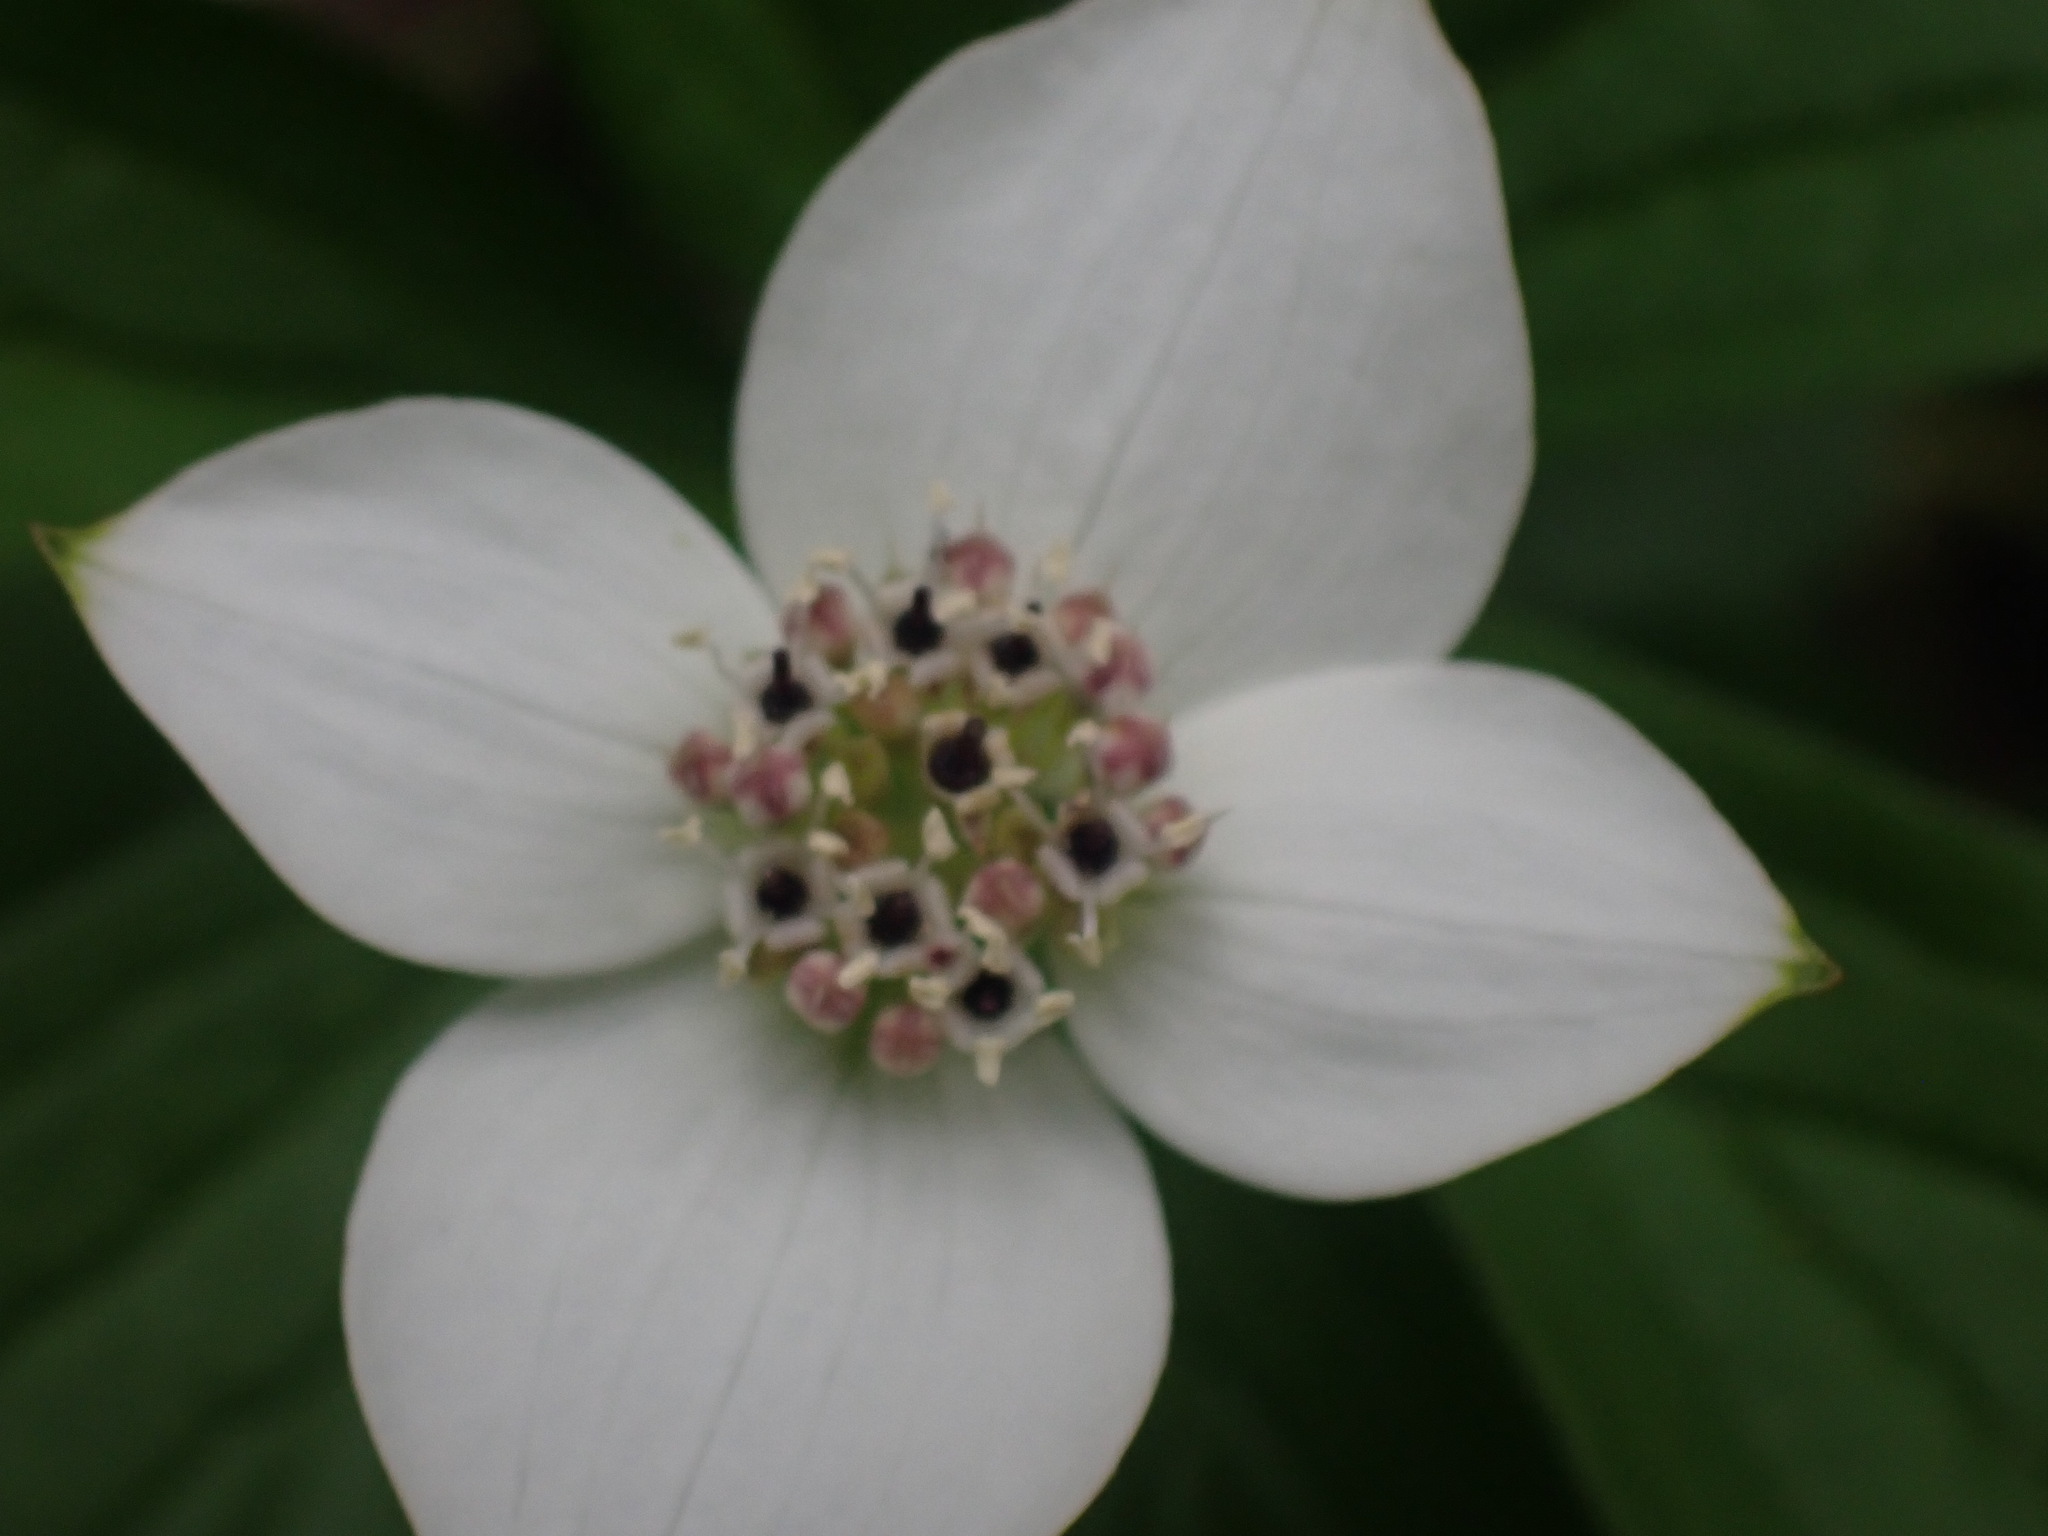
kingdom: Plantae
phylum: Tracheophyta
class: Magnoliopsida
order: Cornales
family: Cornaceae
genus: Cornus
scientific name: Cornus unalaschkensis
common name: Alaska bunchberry
